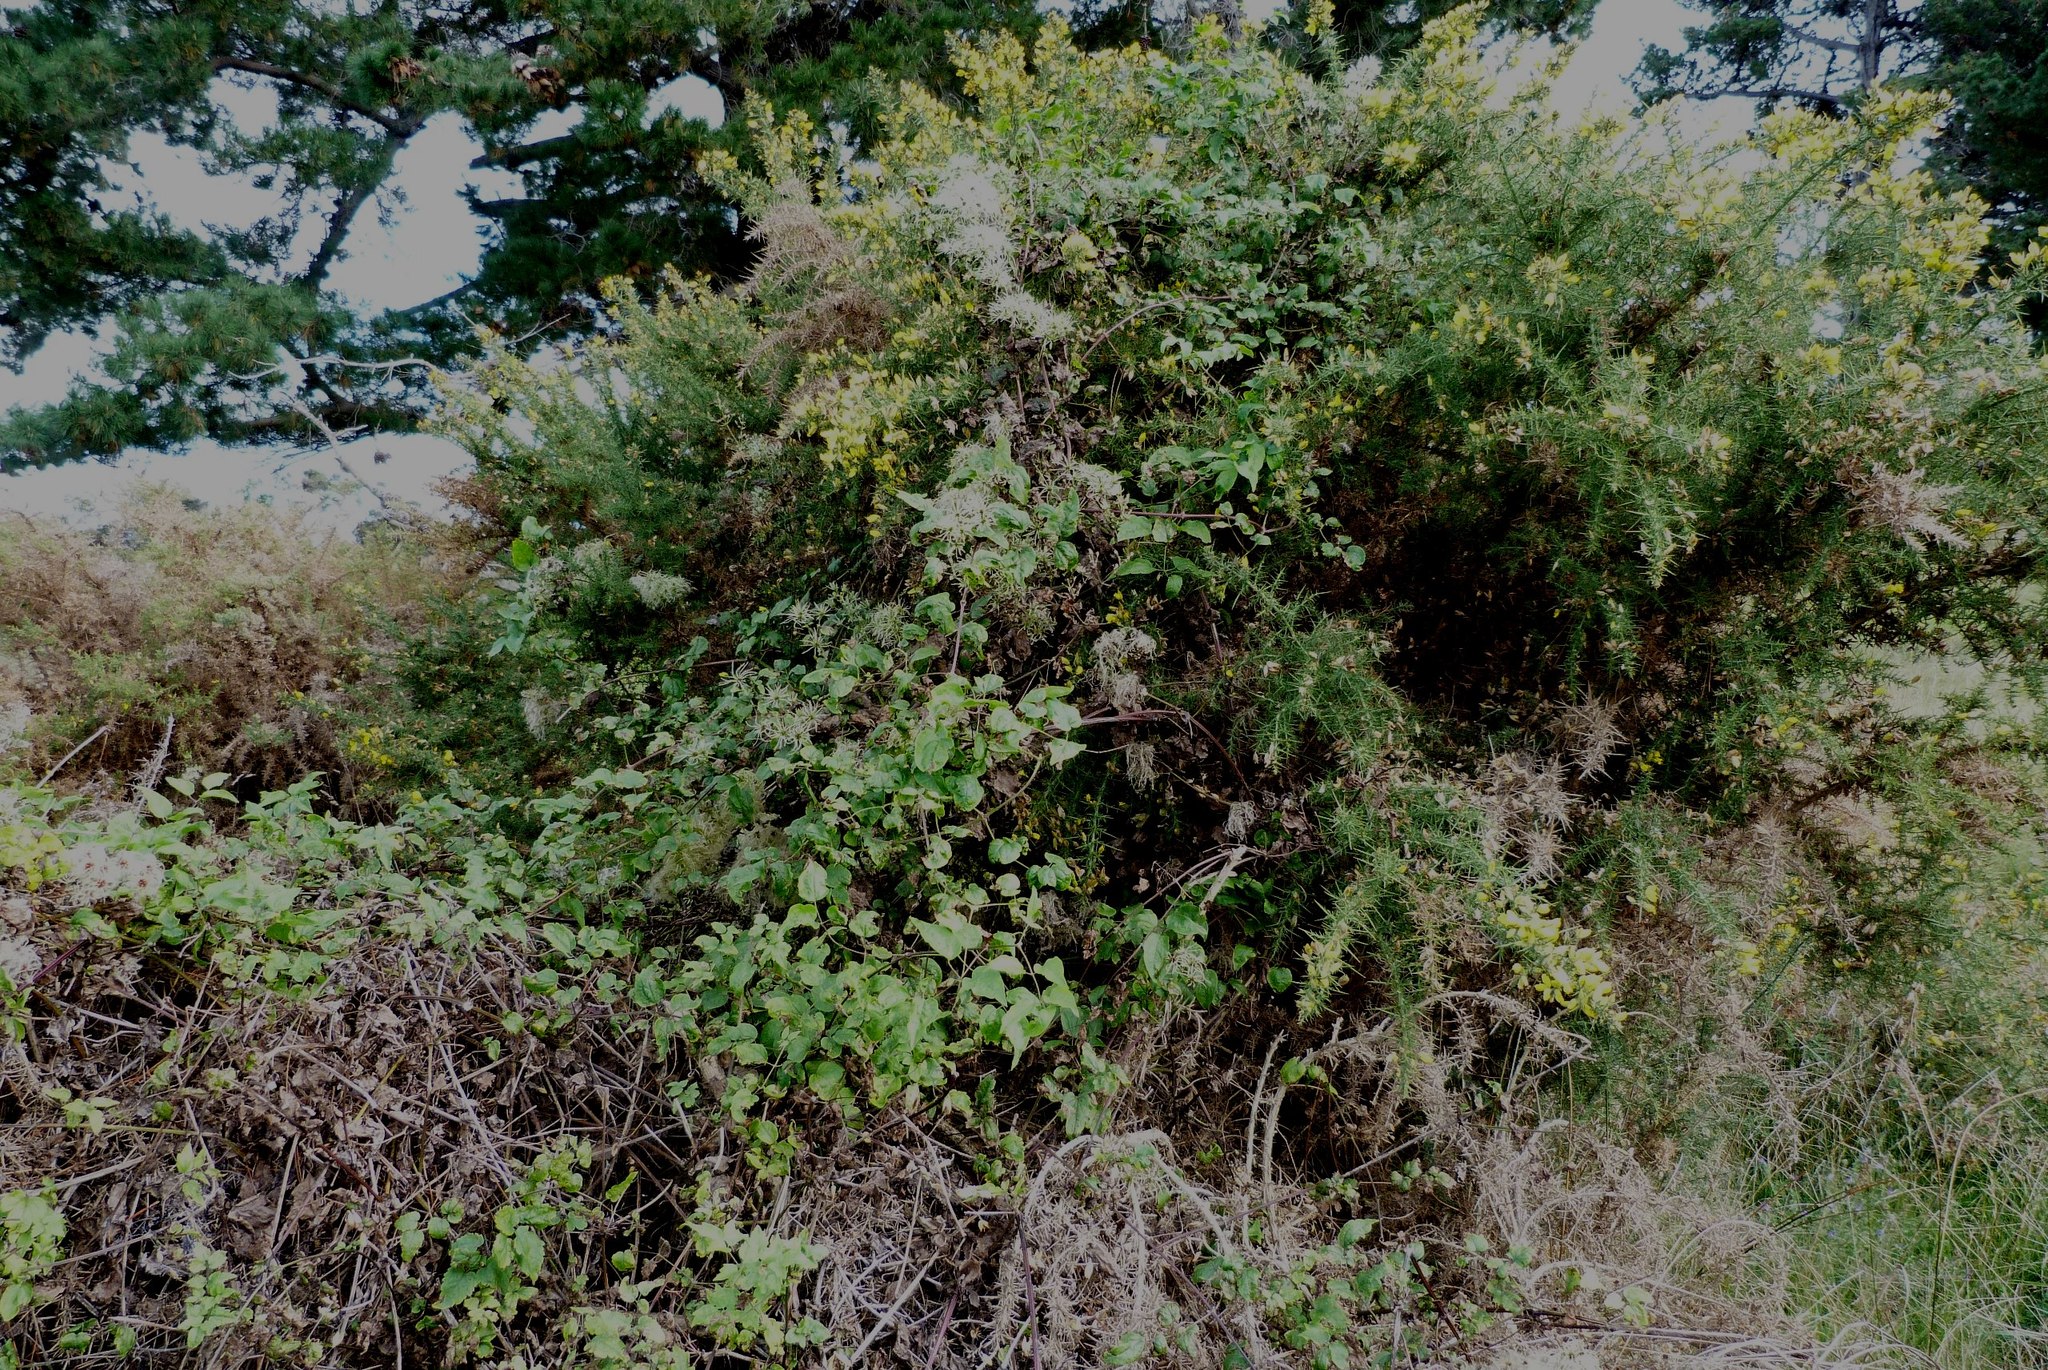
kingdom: Plantae
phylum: Tracheophyta
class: Magnoliopsida
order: Ranunculales
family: Ranunculaceae
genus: Clematis
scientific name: Clematis vitalba
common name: Evergreen clematis
